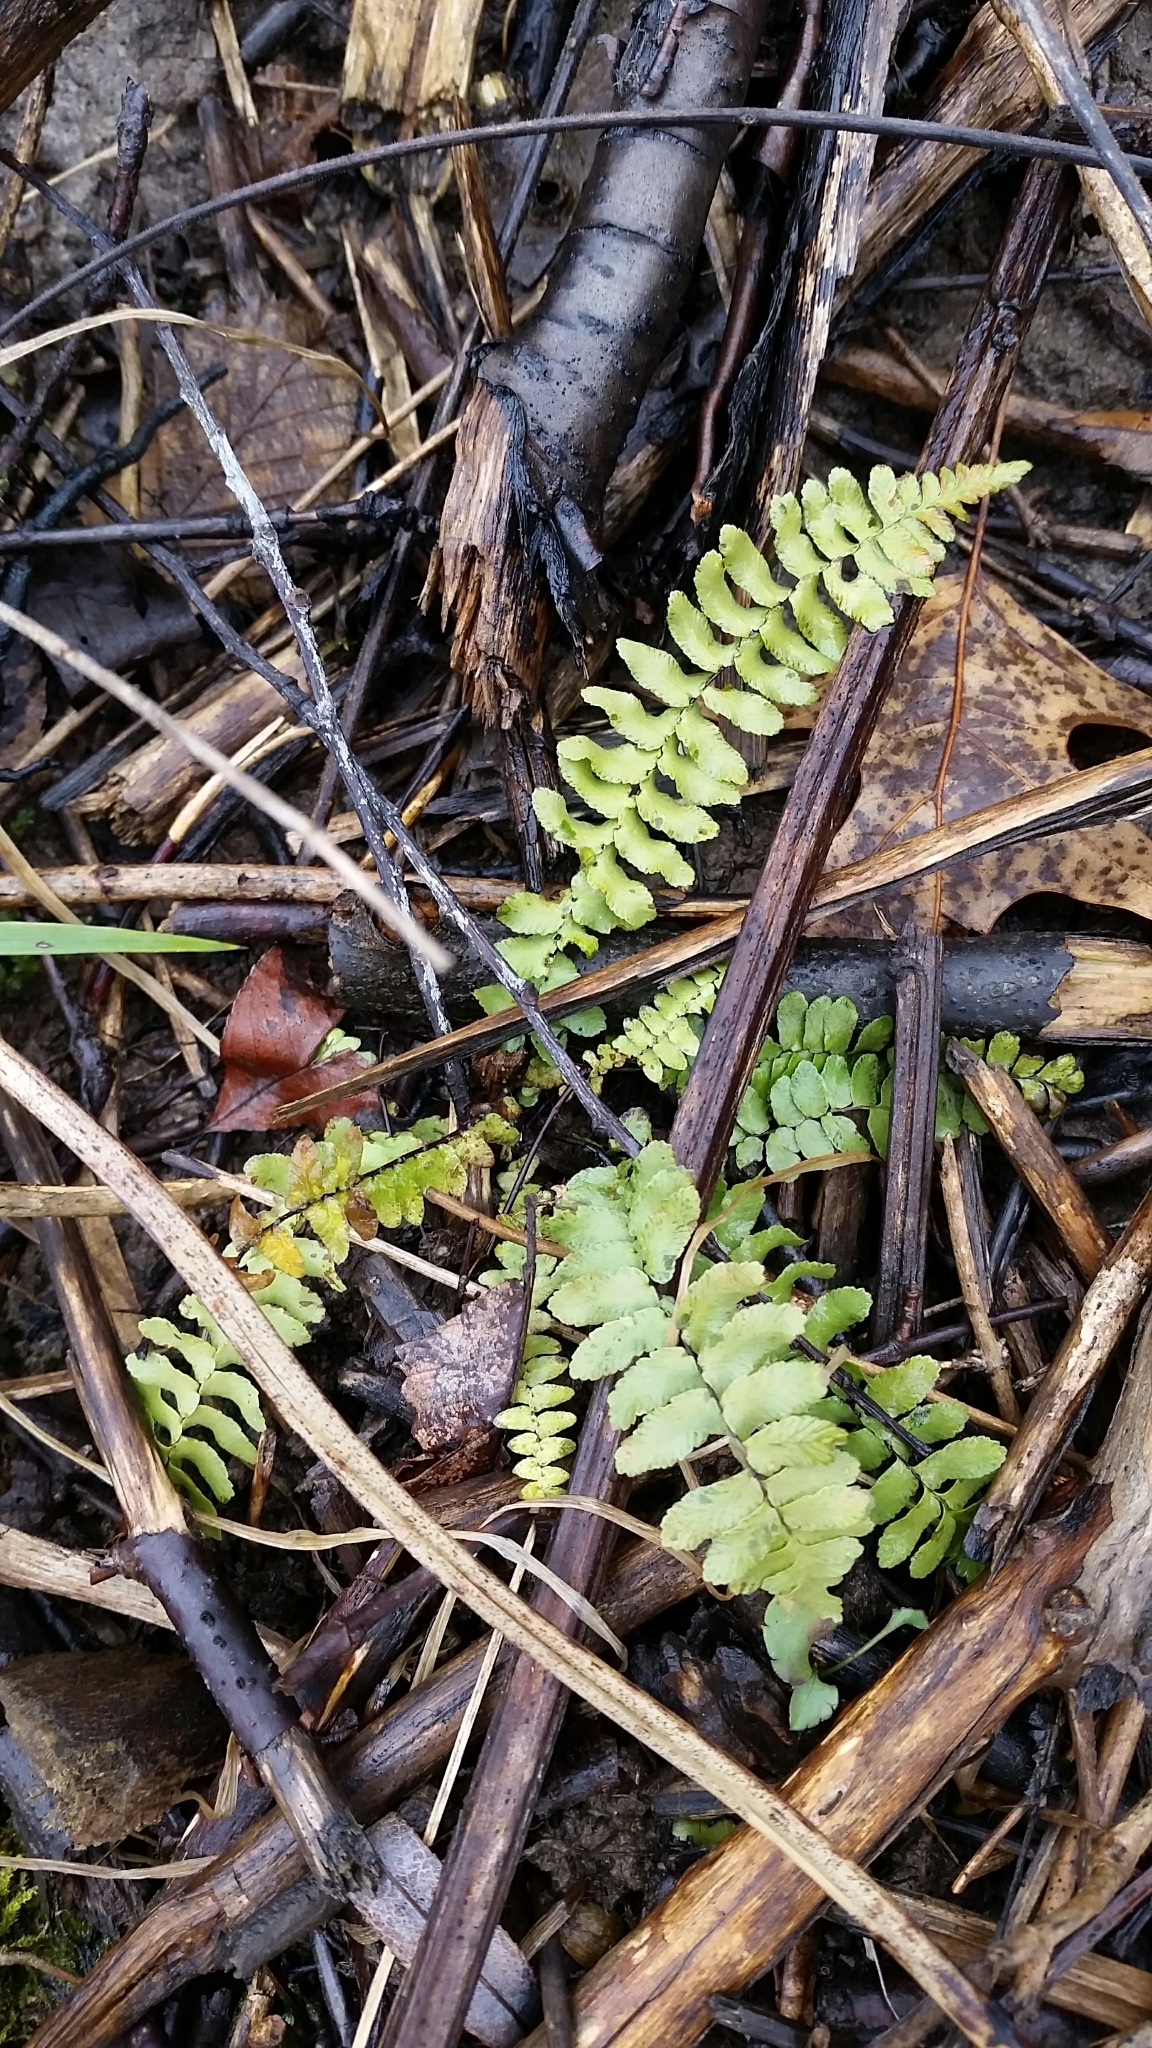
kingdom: Plantae
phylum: Tracheophyta
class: Polypodiopsida
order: Polypodiales
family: Aspleniaceae
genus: Asplenium
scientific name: Asplenium platyneuron
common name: Ebony spleenwort
